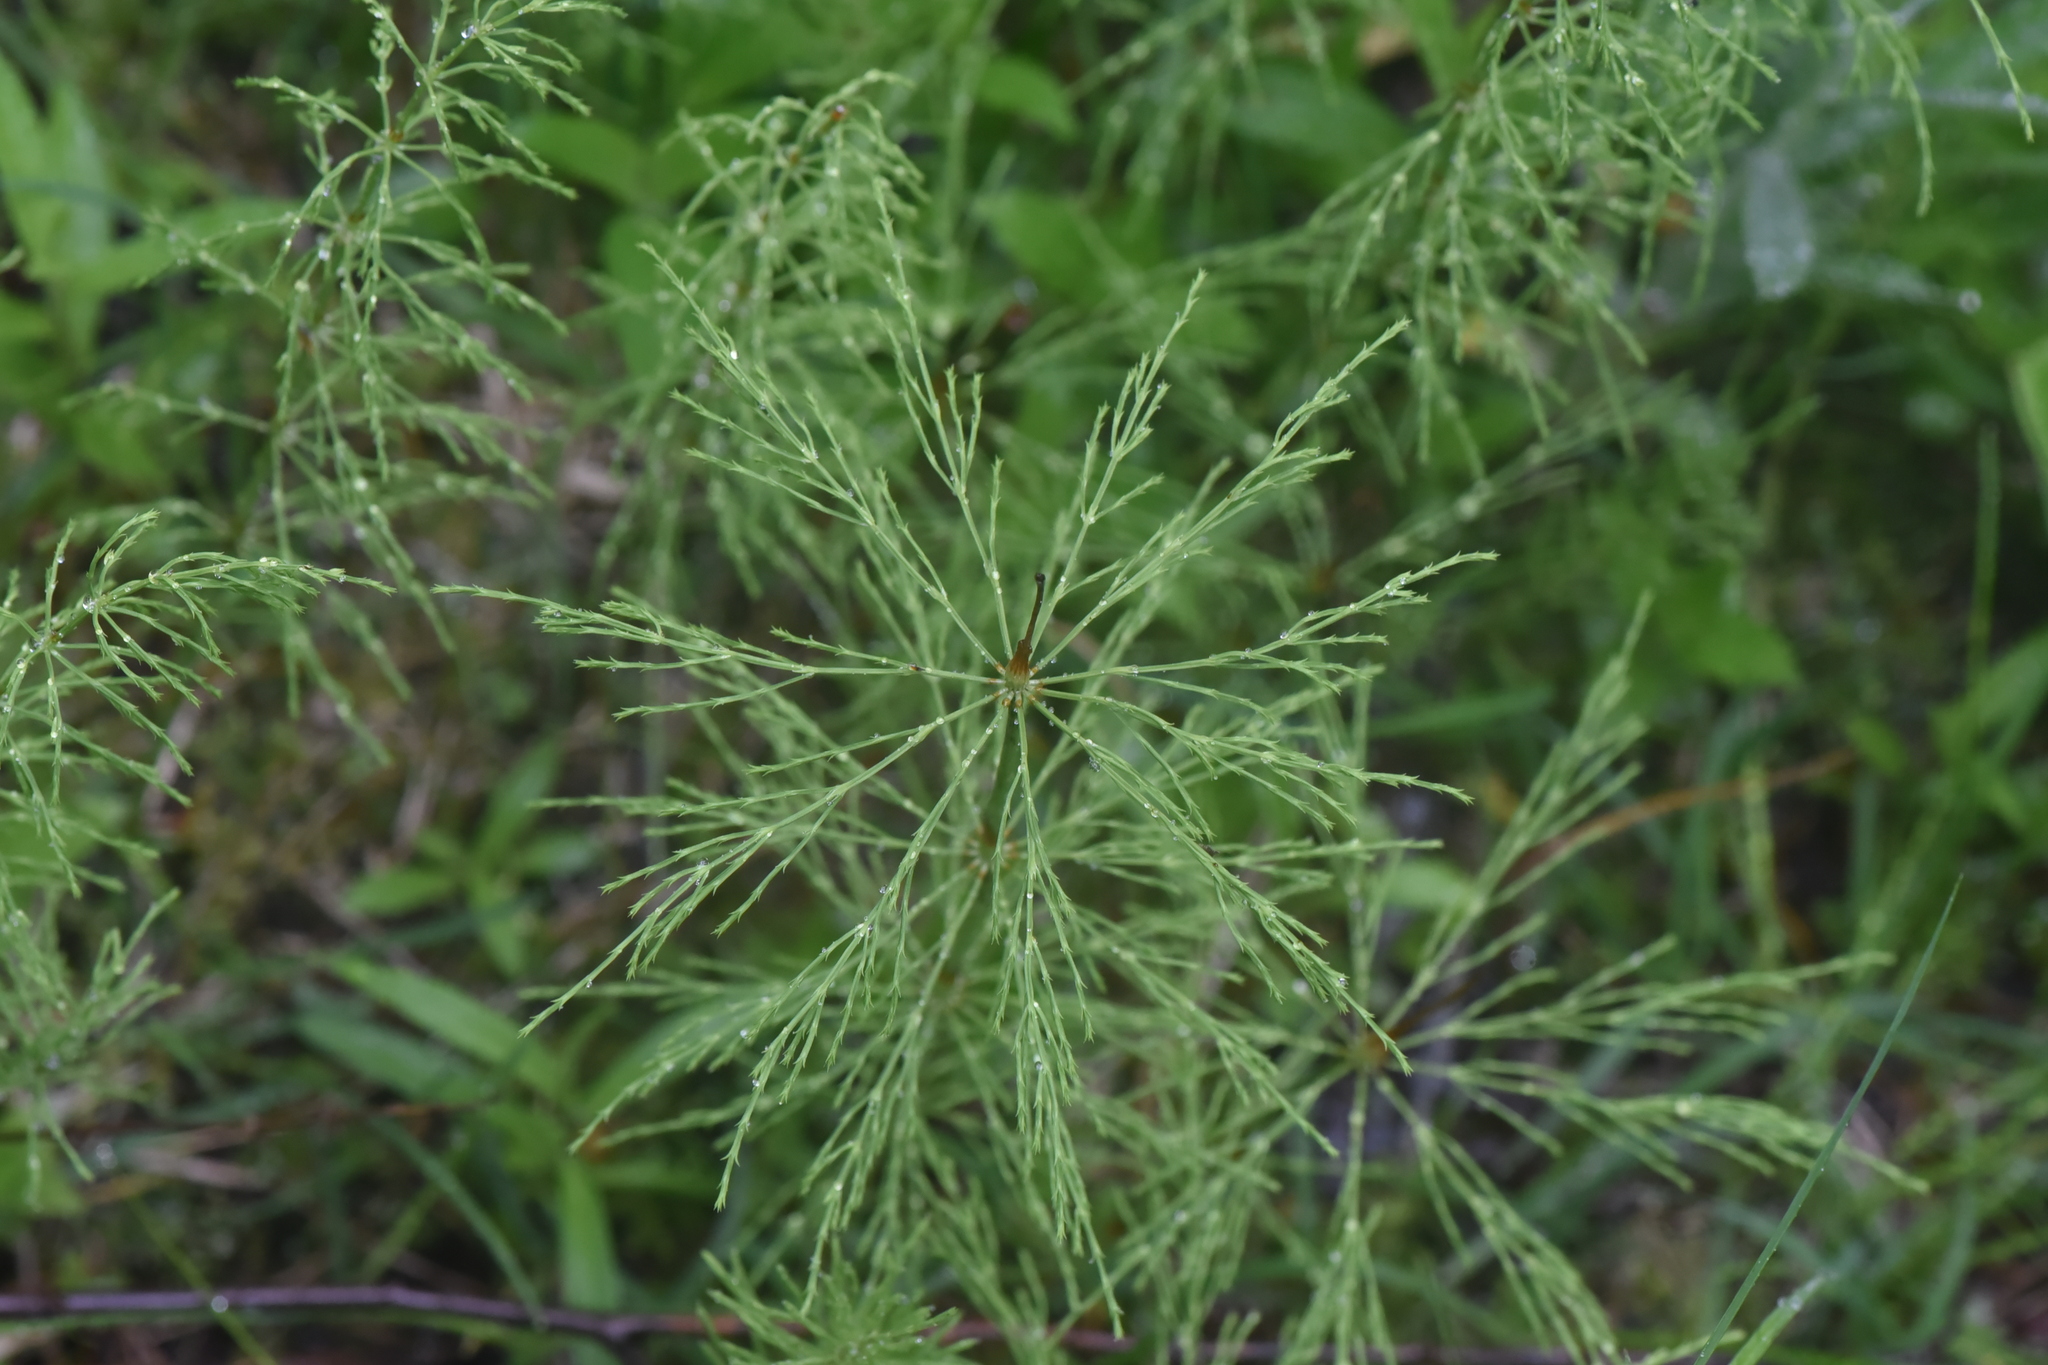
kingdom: Plantae
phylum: Tracheophyta
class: Polypodiopsida
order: Equisetales
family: Equisetaceae
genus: Equisetum
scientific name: Equisetum sylvaticum
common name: Wood horsetail
